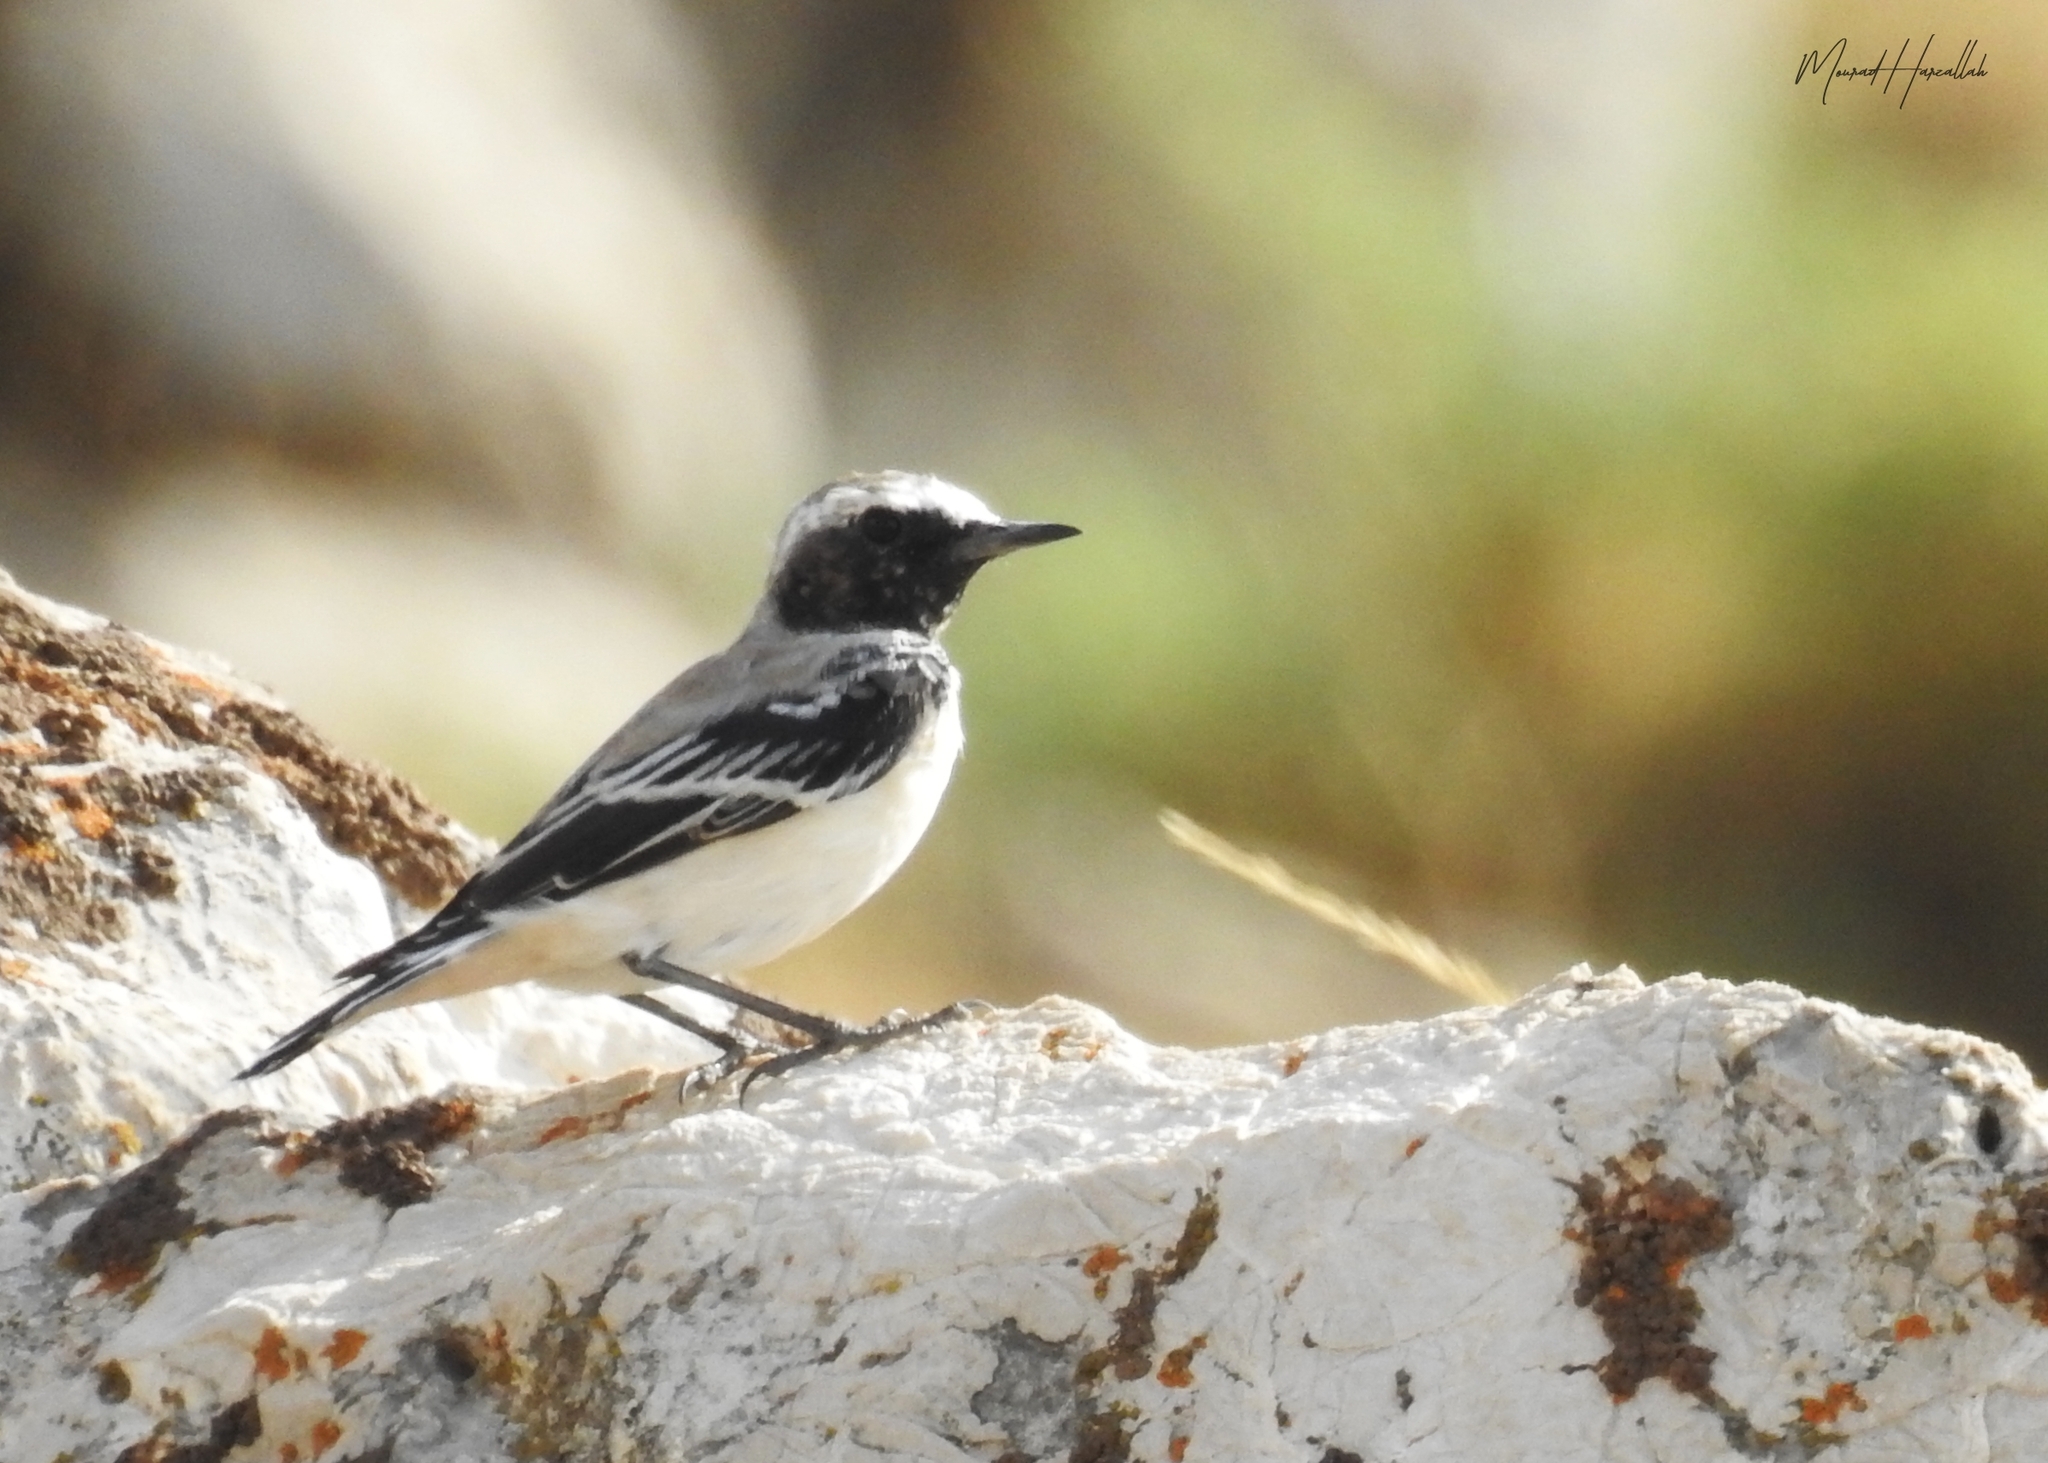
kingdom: Animalia
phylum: Chordata
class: Aves
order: Passeriformes
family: Muscicapidae
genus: Oenanthe
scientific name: Oenanthe oenanthe
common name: Northern wheatear
